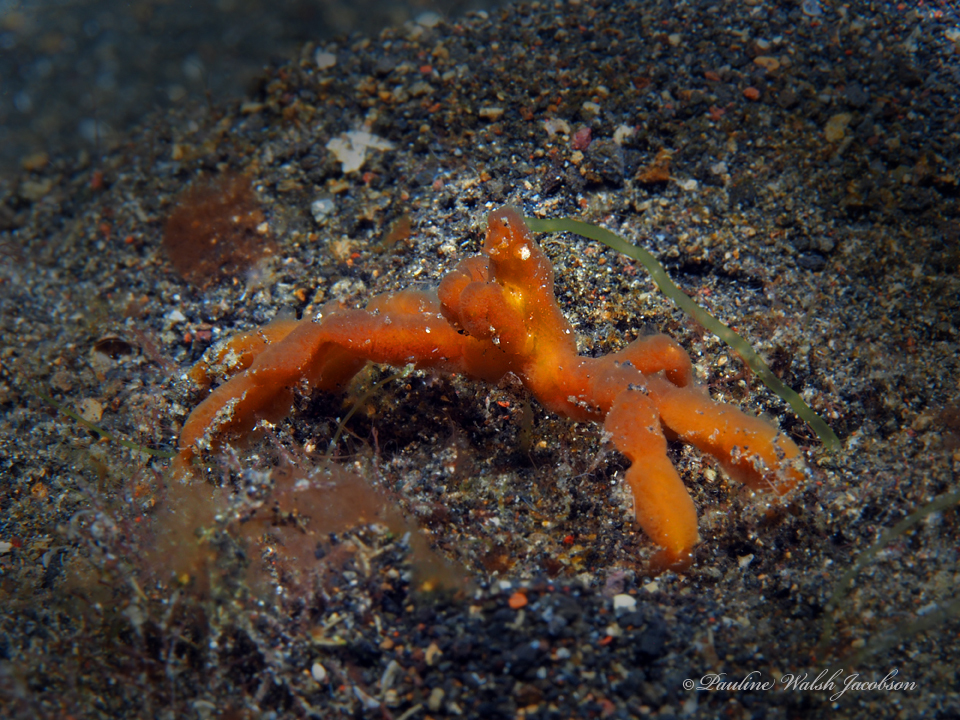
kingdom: Animalia
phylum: Arthropoda
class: Malacostraca
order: Decapoda
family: Inachidae
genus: Achaeus
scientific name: Achaeus japonicus
